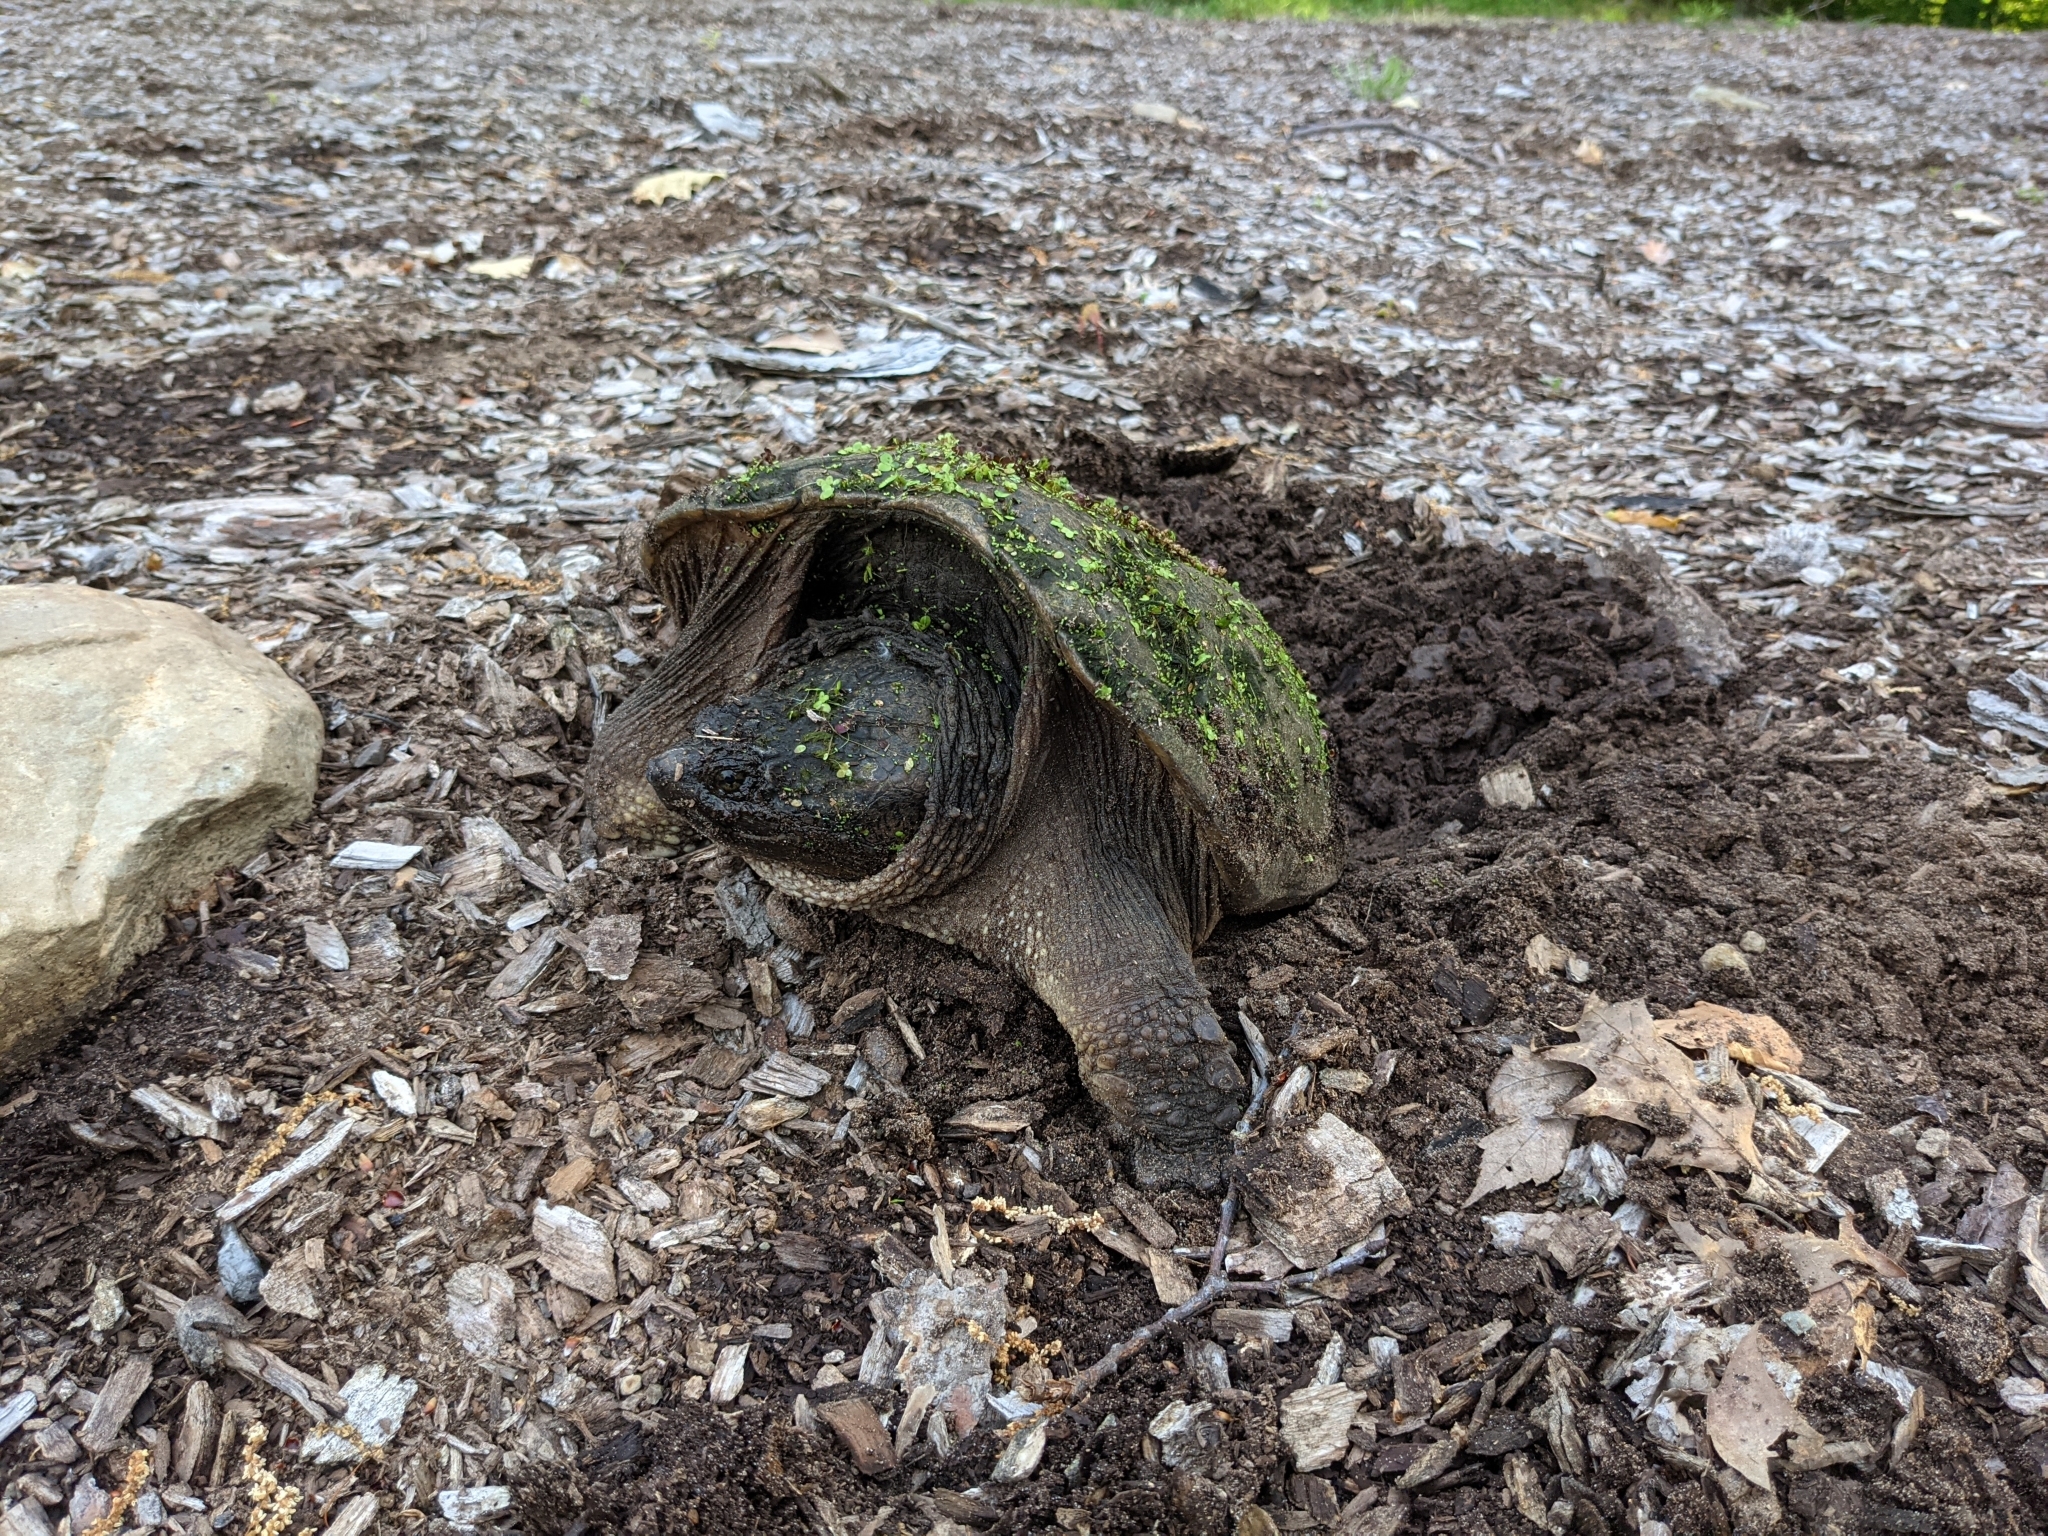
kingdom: Animalia
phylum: Chordata
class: Testudines
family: Chelydridae
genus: Chelydra
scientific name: Chelydra serpentina
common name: Common snapping turtle
